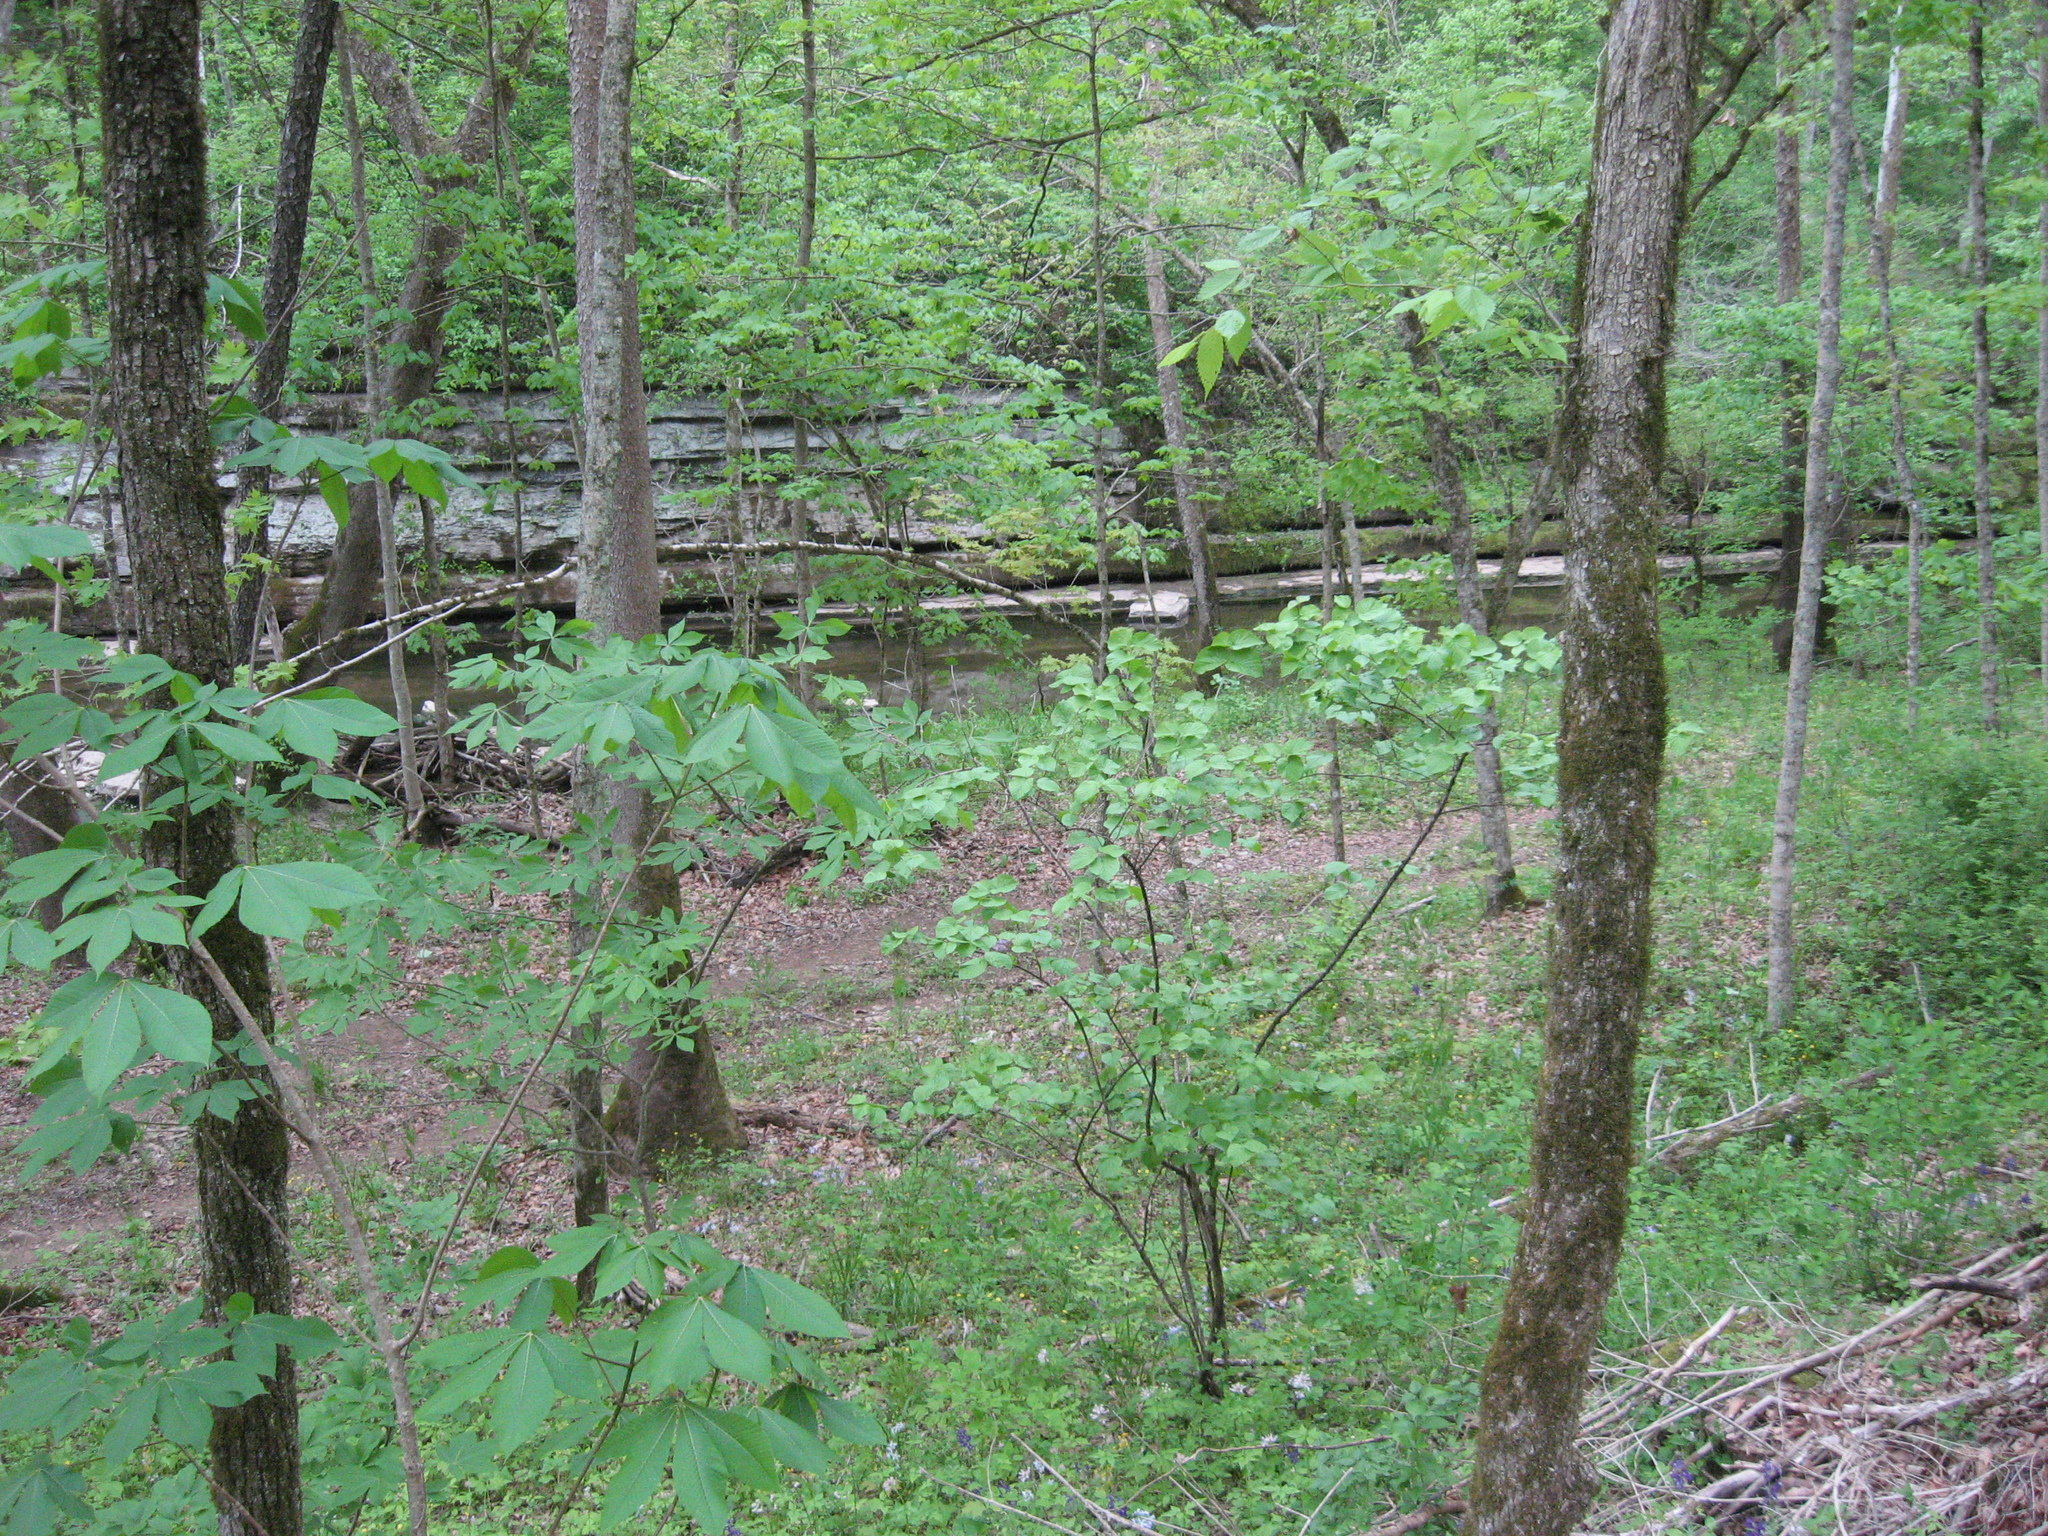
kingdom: Plantae
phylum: Tracheophyta
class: Magnoliopsida
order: Dipsacales
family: Viburnaceae
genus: Viburnum
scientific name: Viburnum molle
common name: Soft-leaf arrow-wood
